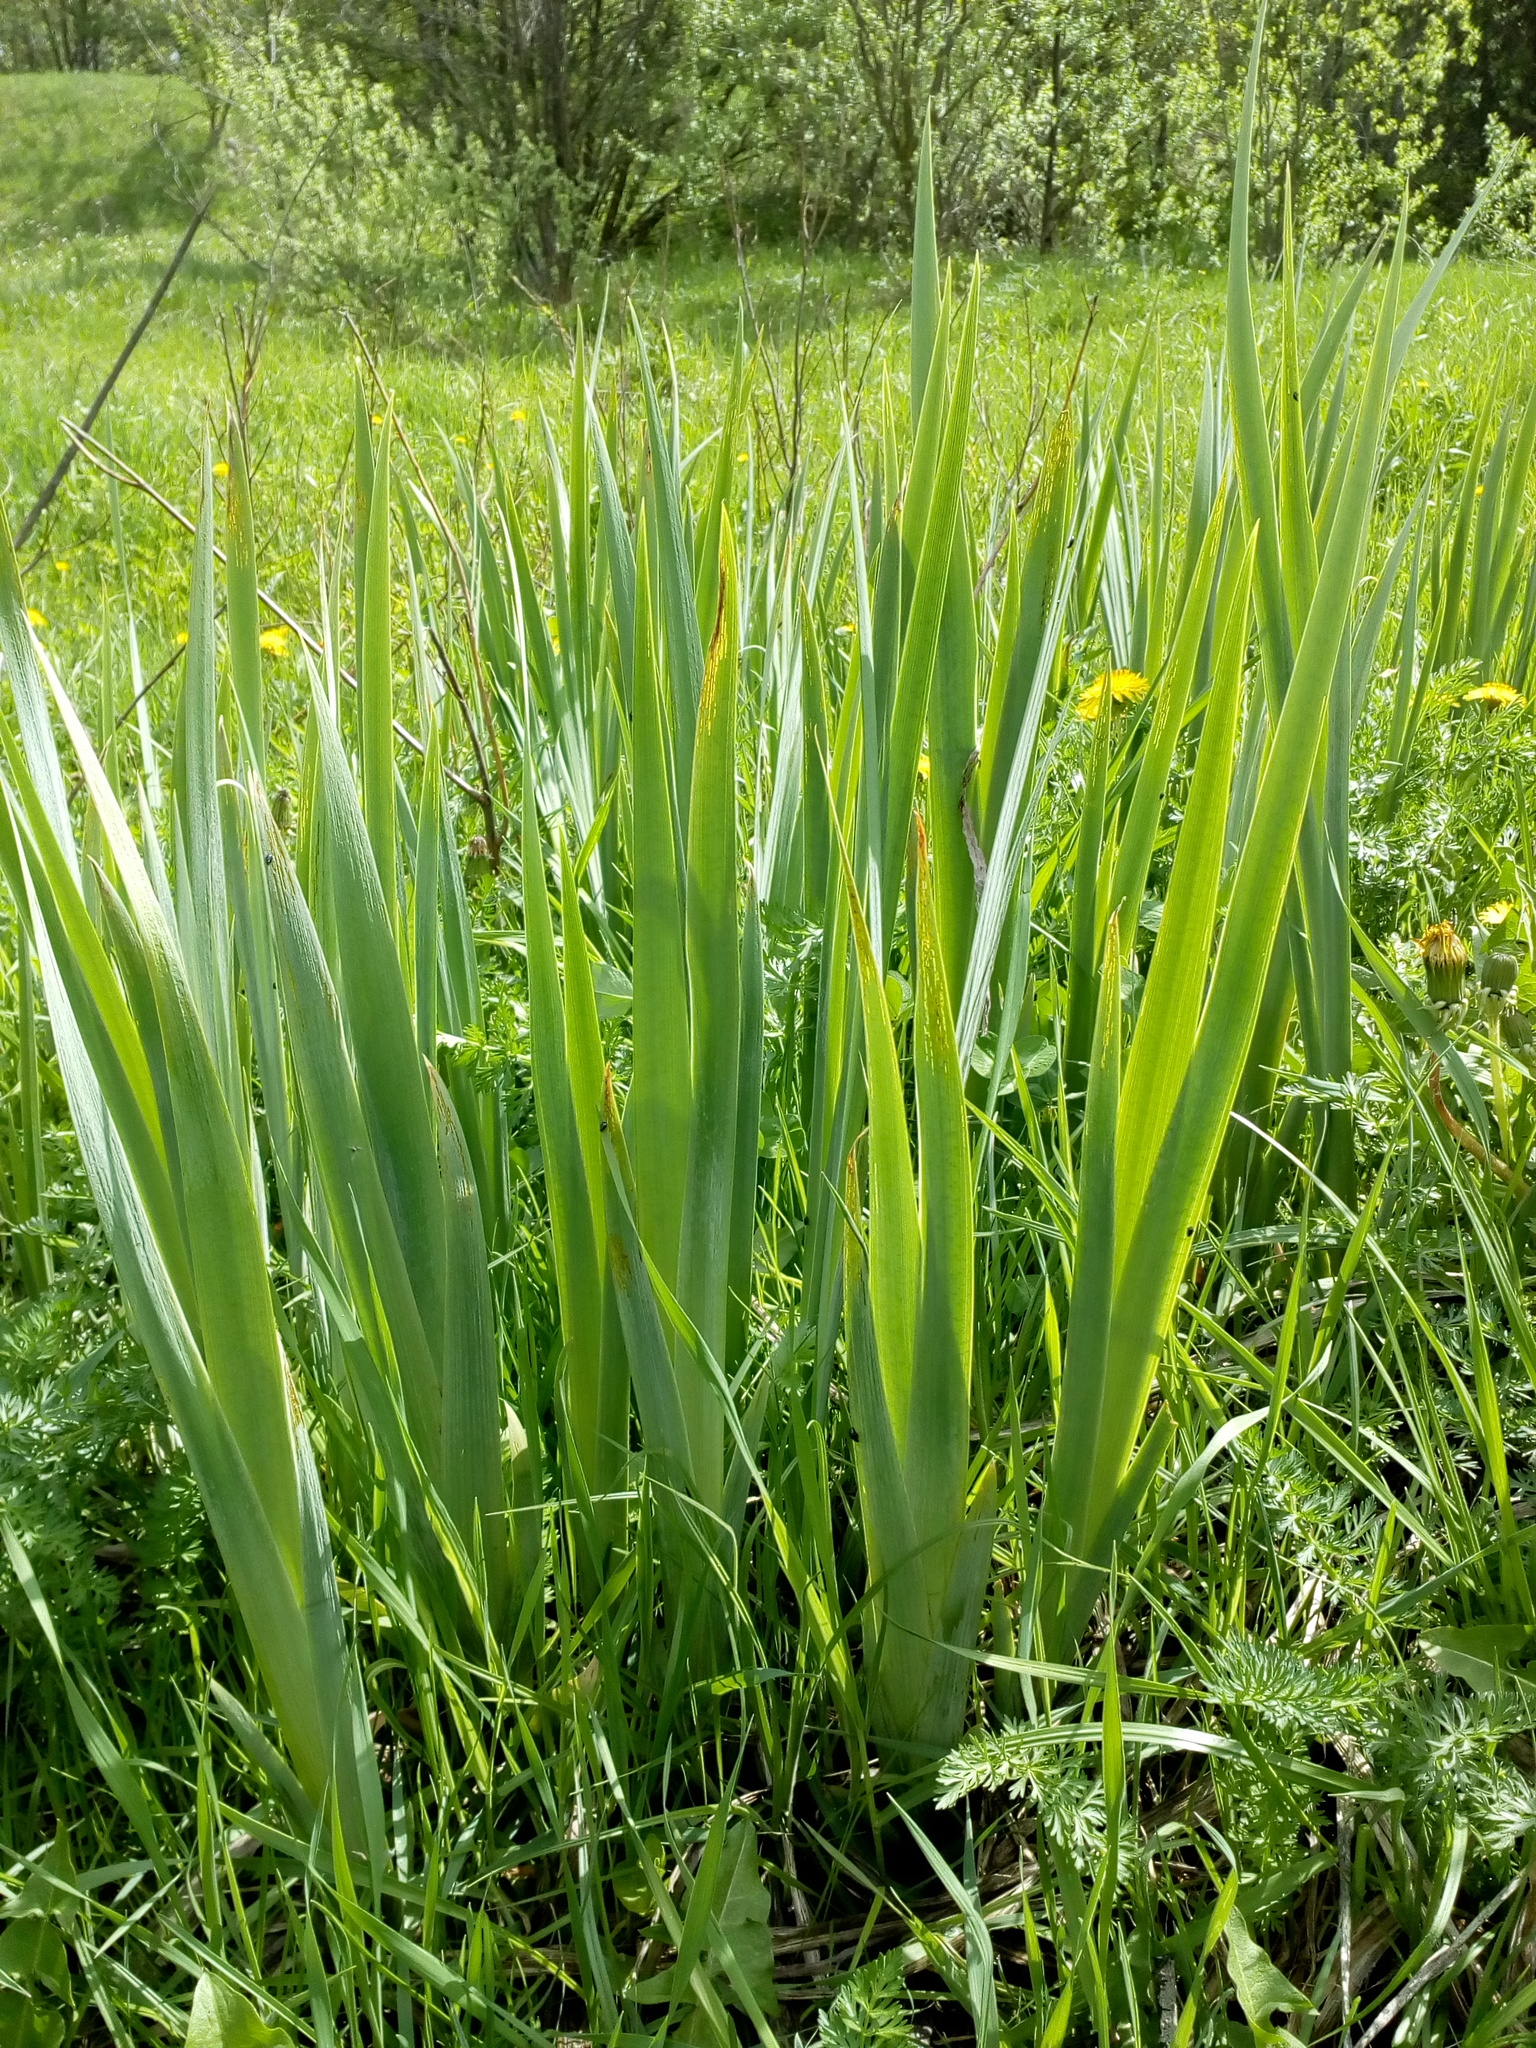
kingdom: Plantae
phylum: Tracheophyta
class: Liliopsida
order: Asparagales
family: Iridaceae
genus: Iris
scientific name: Iris pseudacorus
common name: Yellow flag
